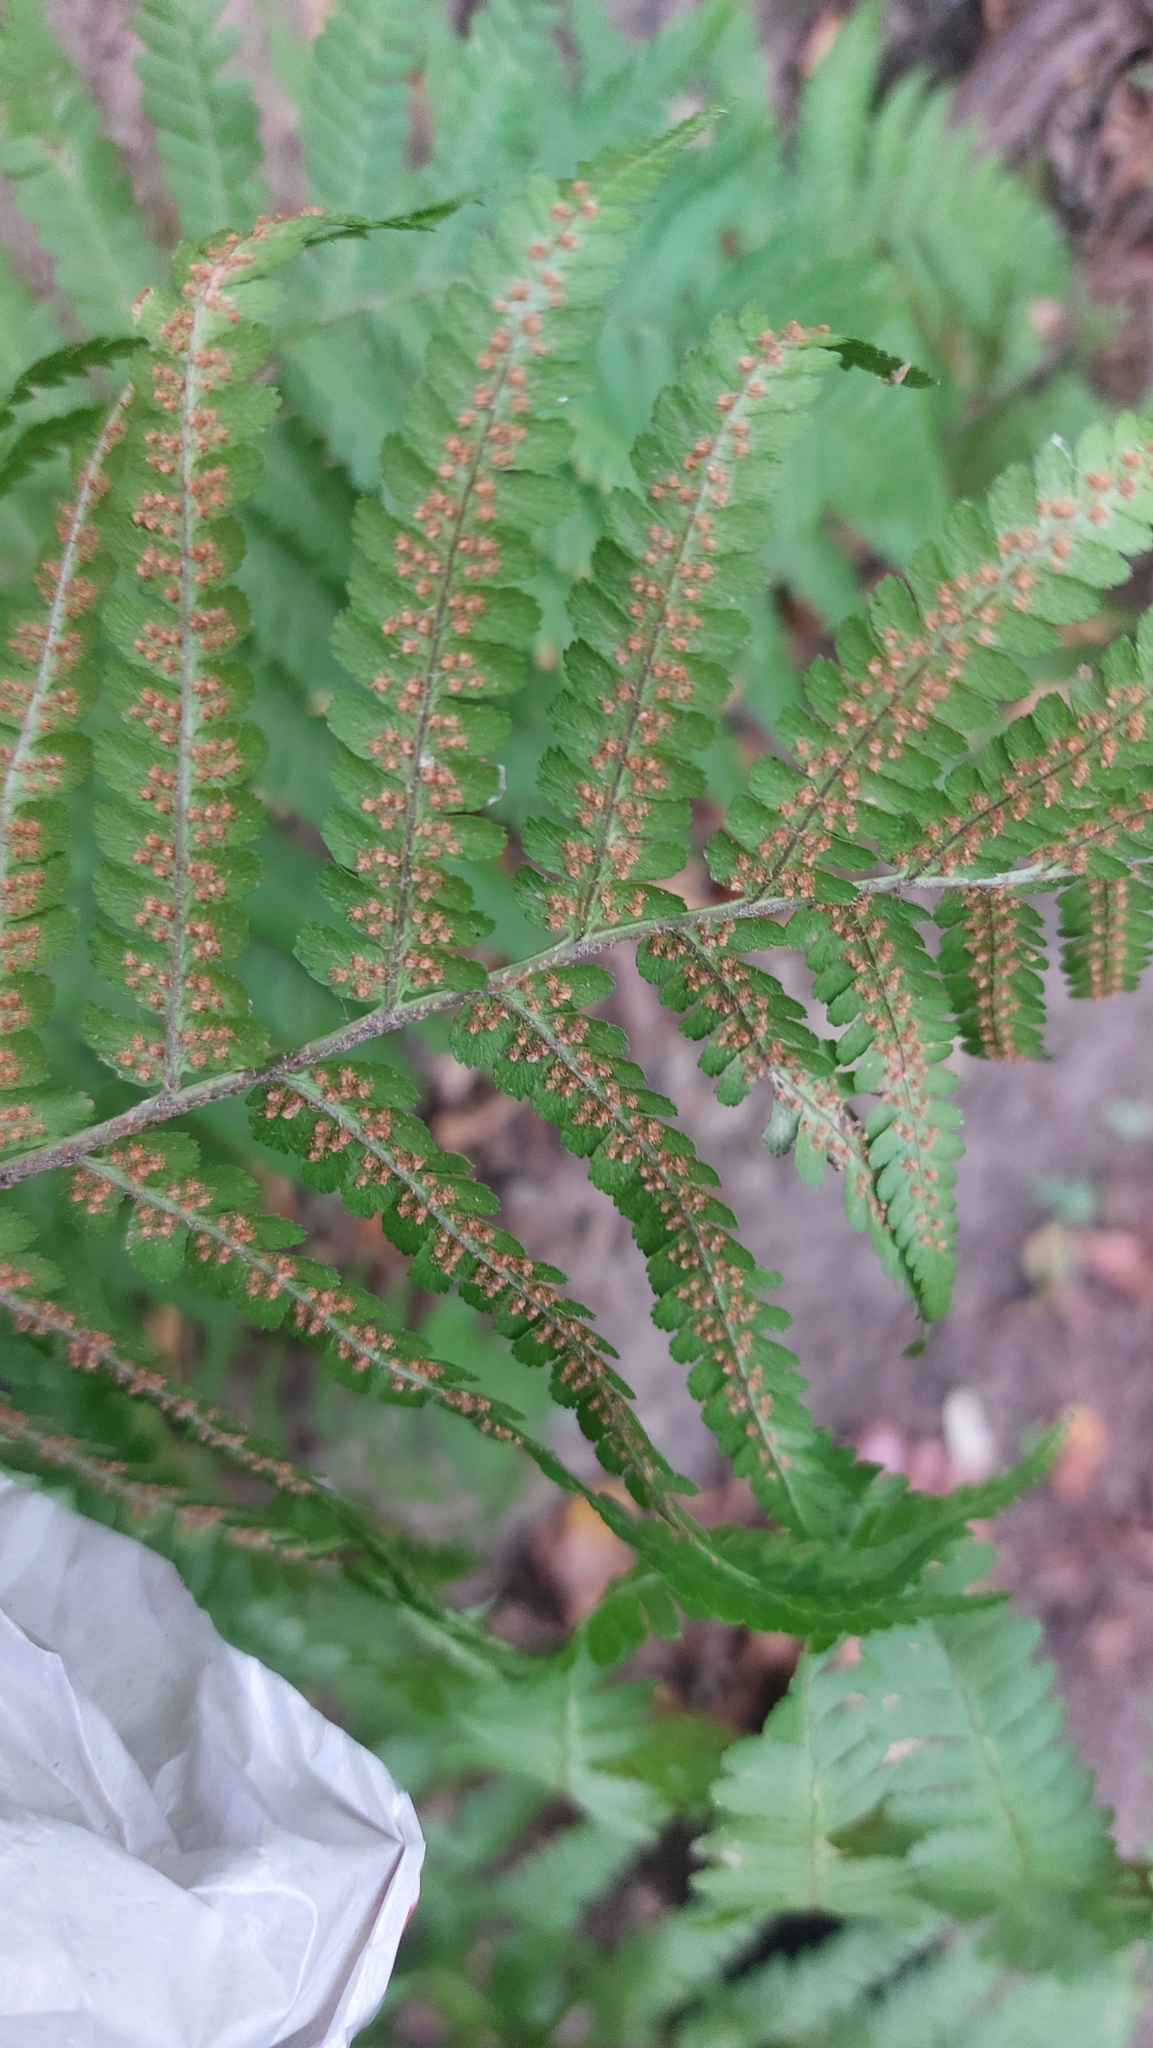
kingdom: Plantae
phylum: Tracheophyta
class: Polypodiopsida
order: Polypodiales
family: Dryopteridaceae
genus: Dryopteris
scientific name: Dryopteris filix-mas
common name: Male fern
